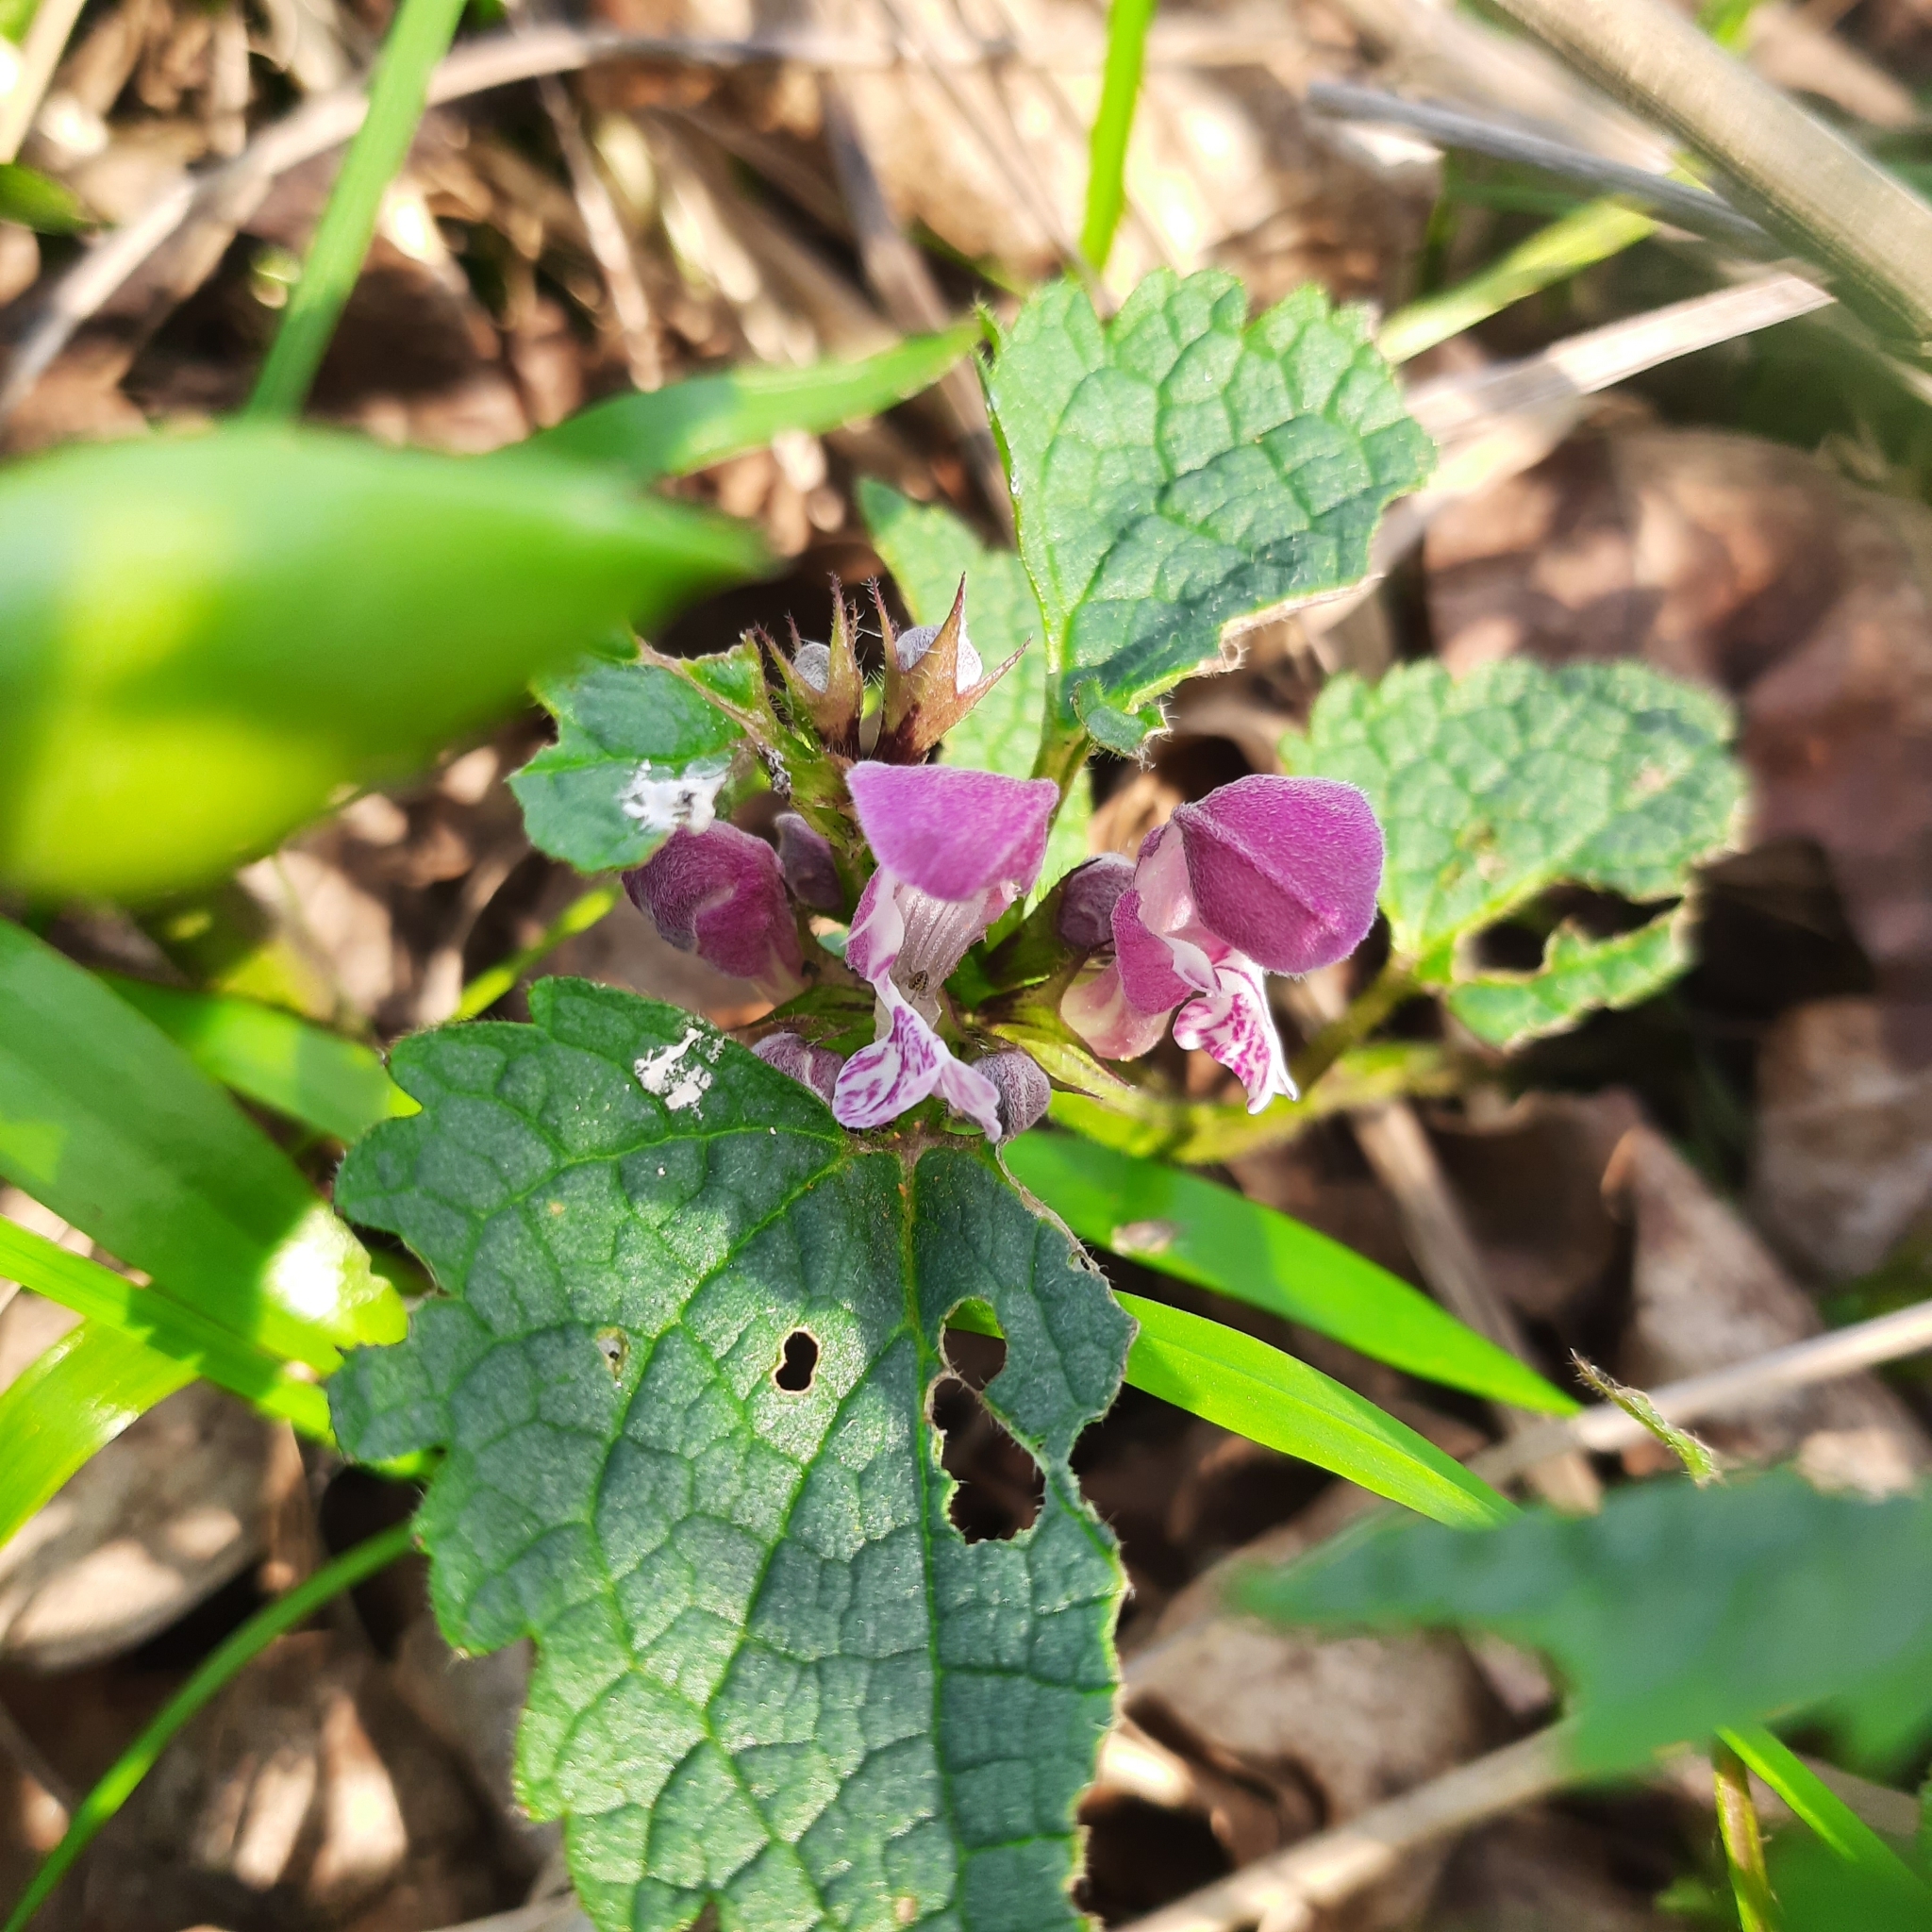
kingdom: Plantae
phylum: Tracheophyta
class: Magnoliopsida
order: Lamiales
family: Lamiaceae
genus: Lamium
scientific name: Lamium maculatum
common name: Spotted dead-nettle
